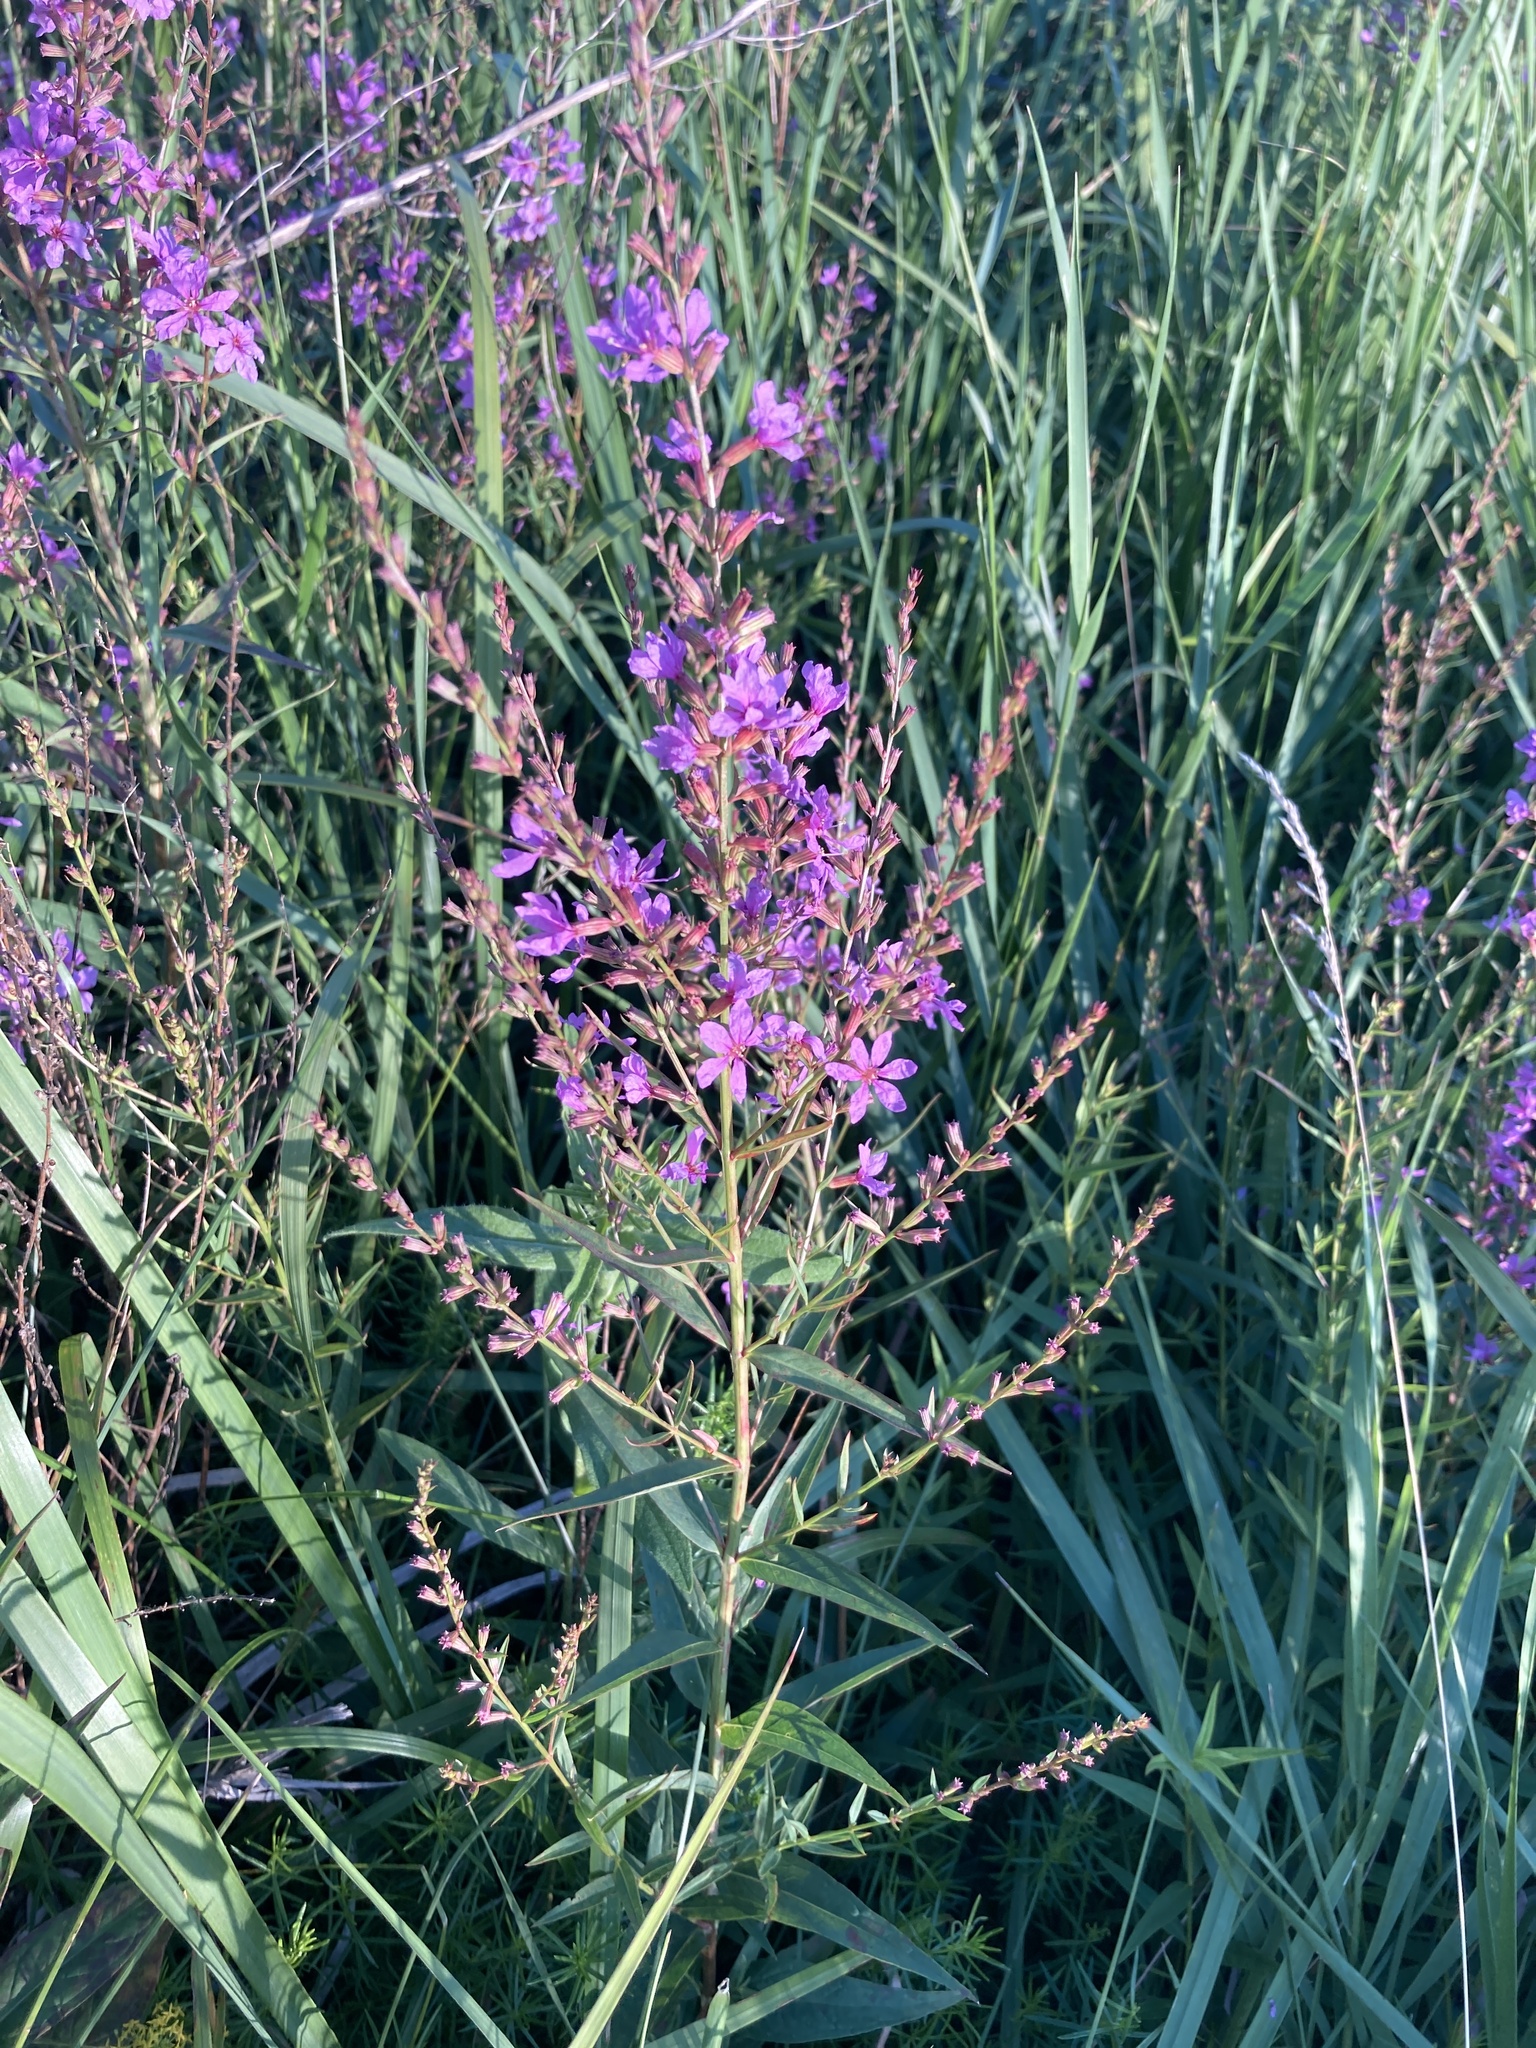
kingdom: Plantae
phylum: Tracheophyta
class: Magnoliopsida
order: Myrtales
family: Lythraceae
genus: Lythrum
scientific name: Lythrum virgatum
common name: European wand loosestrife
